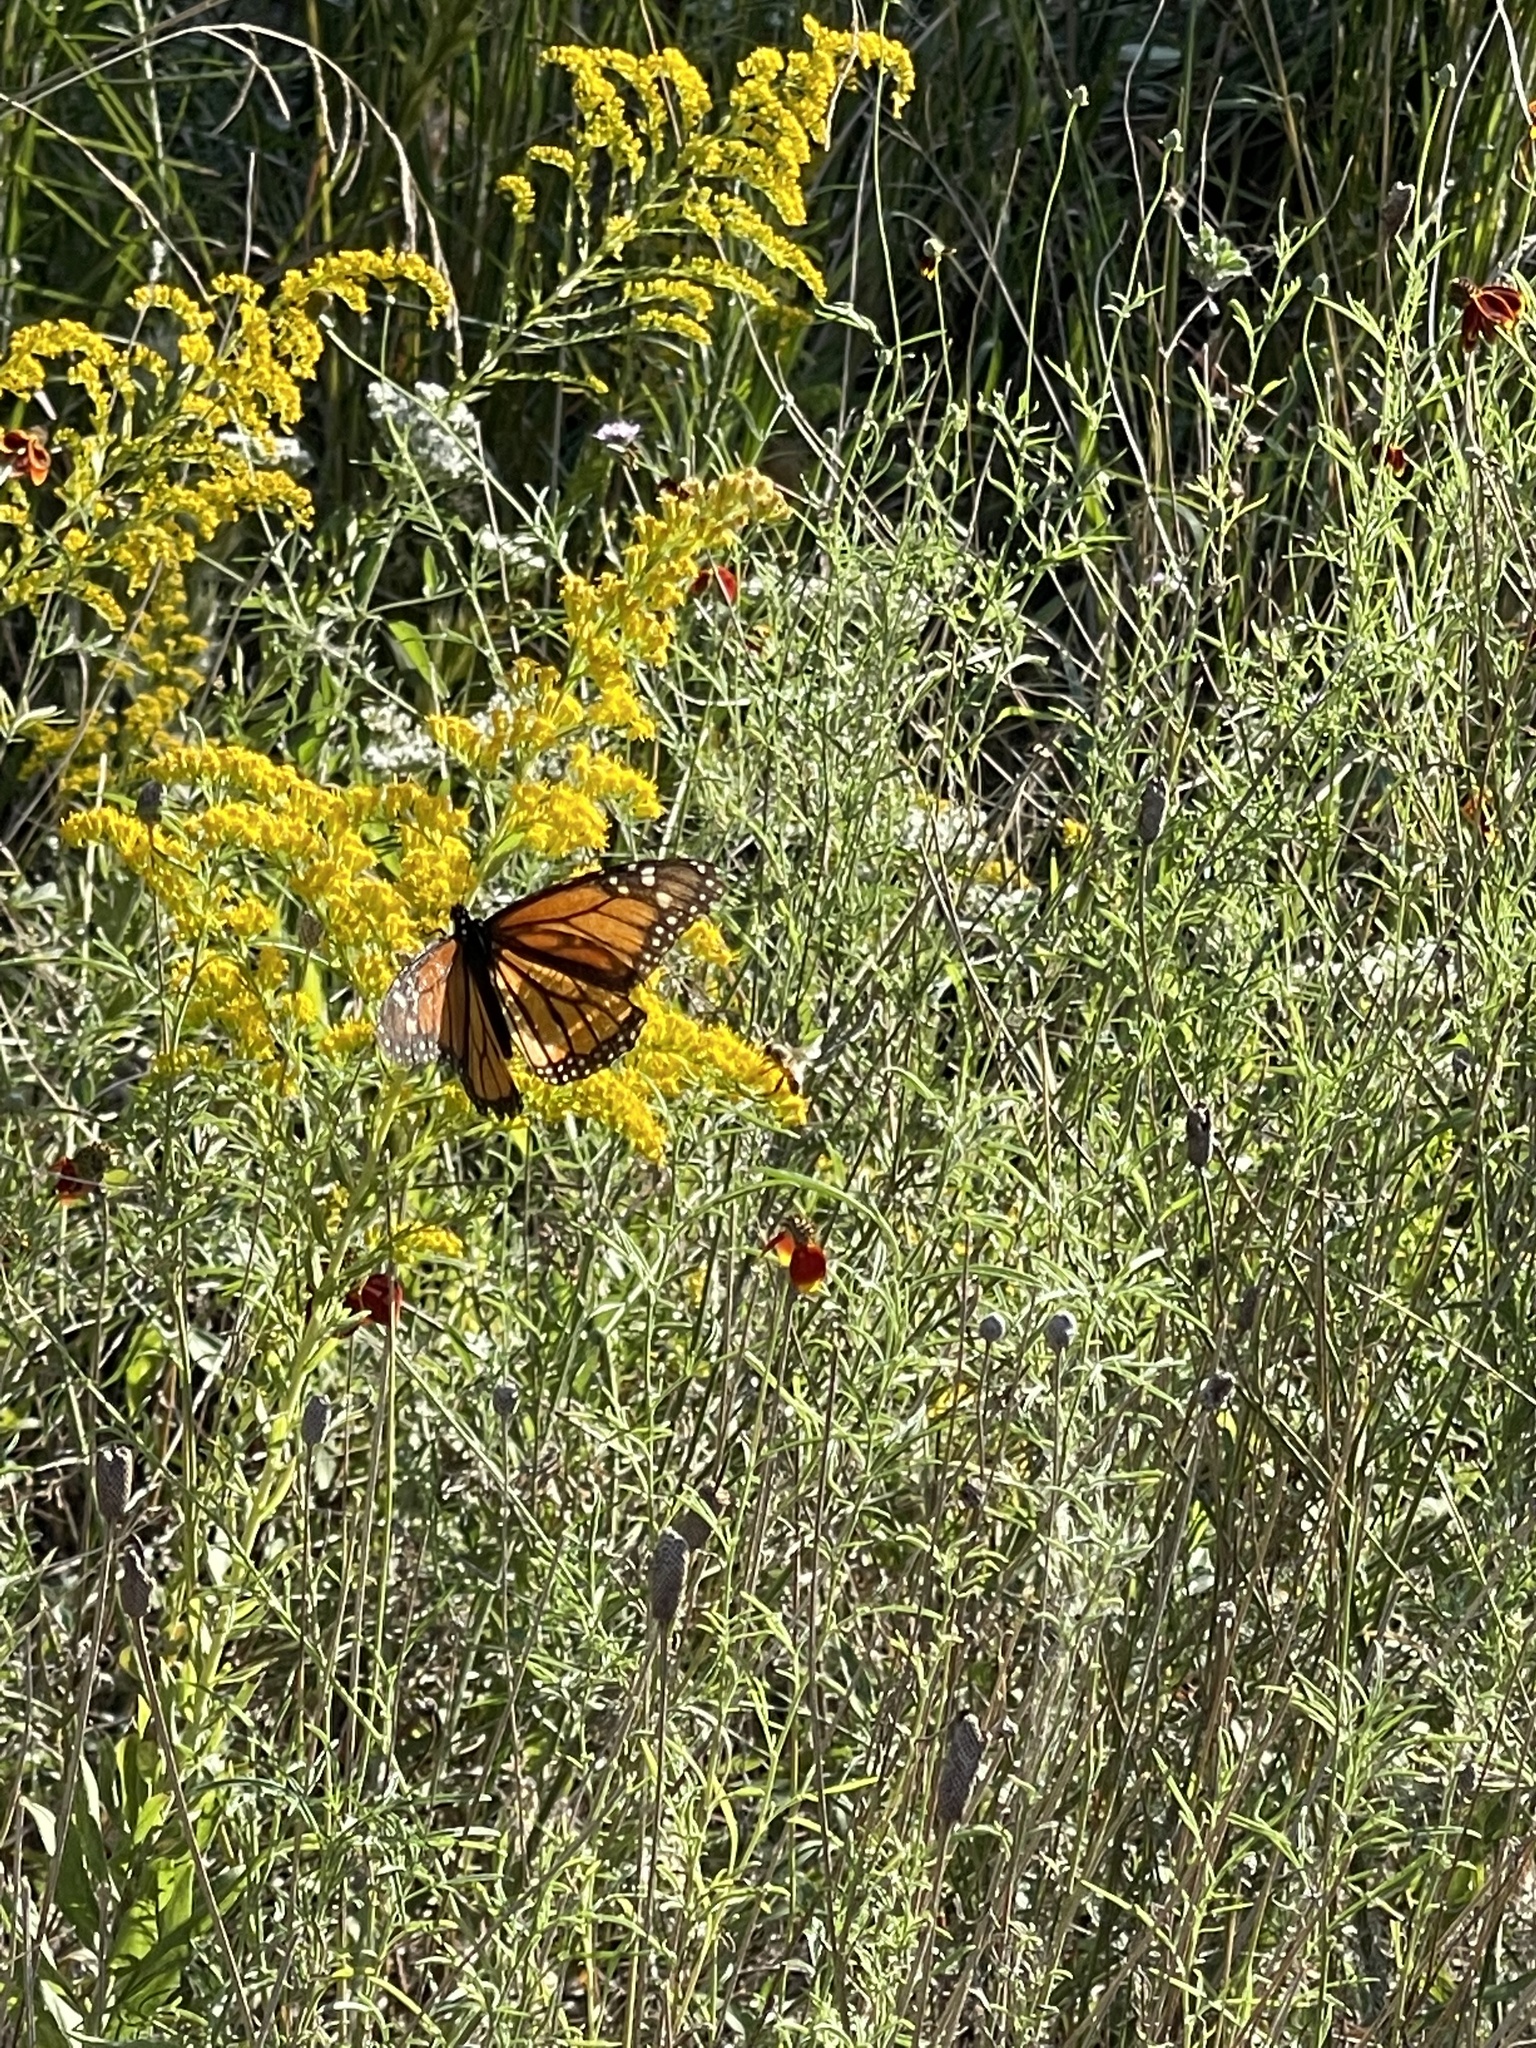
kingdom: Animalia
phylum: Arthropoda
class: Insecta
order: Lepidoptera
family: Nymphalidae
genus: Danaus
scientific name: Danaus plexippus
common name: Monarch
